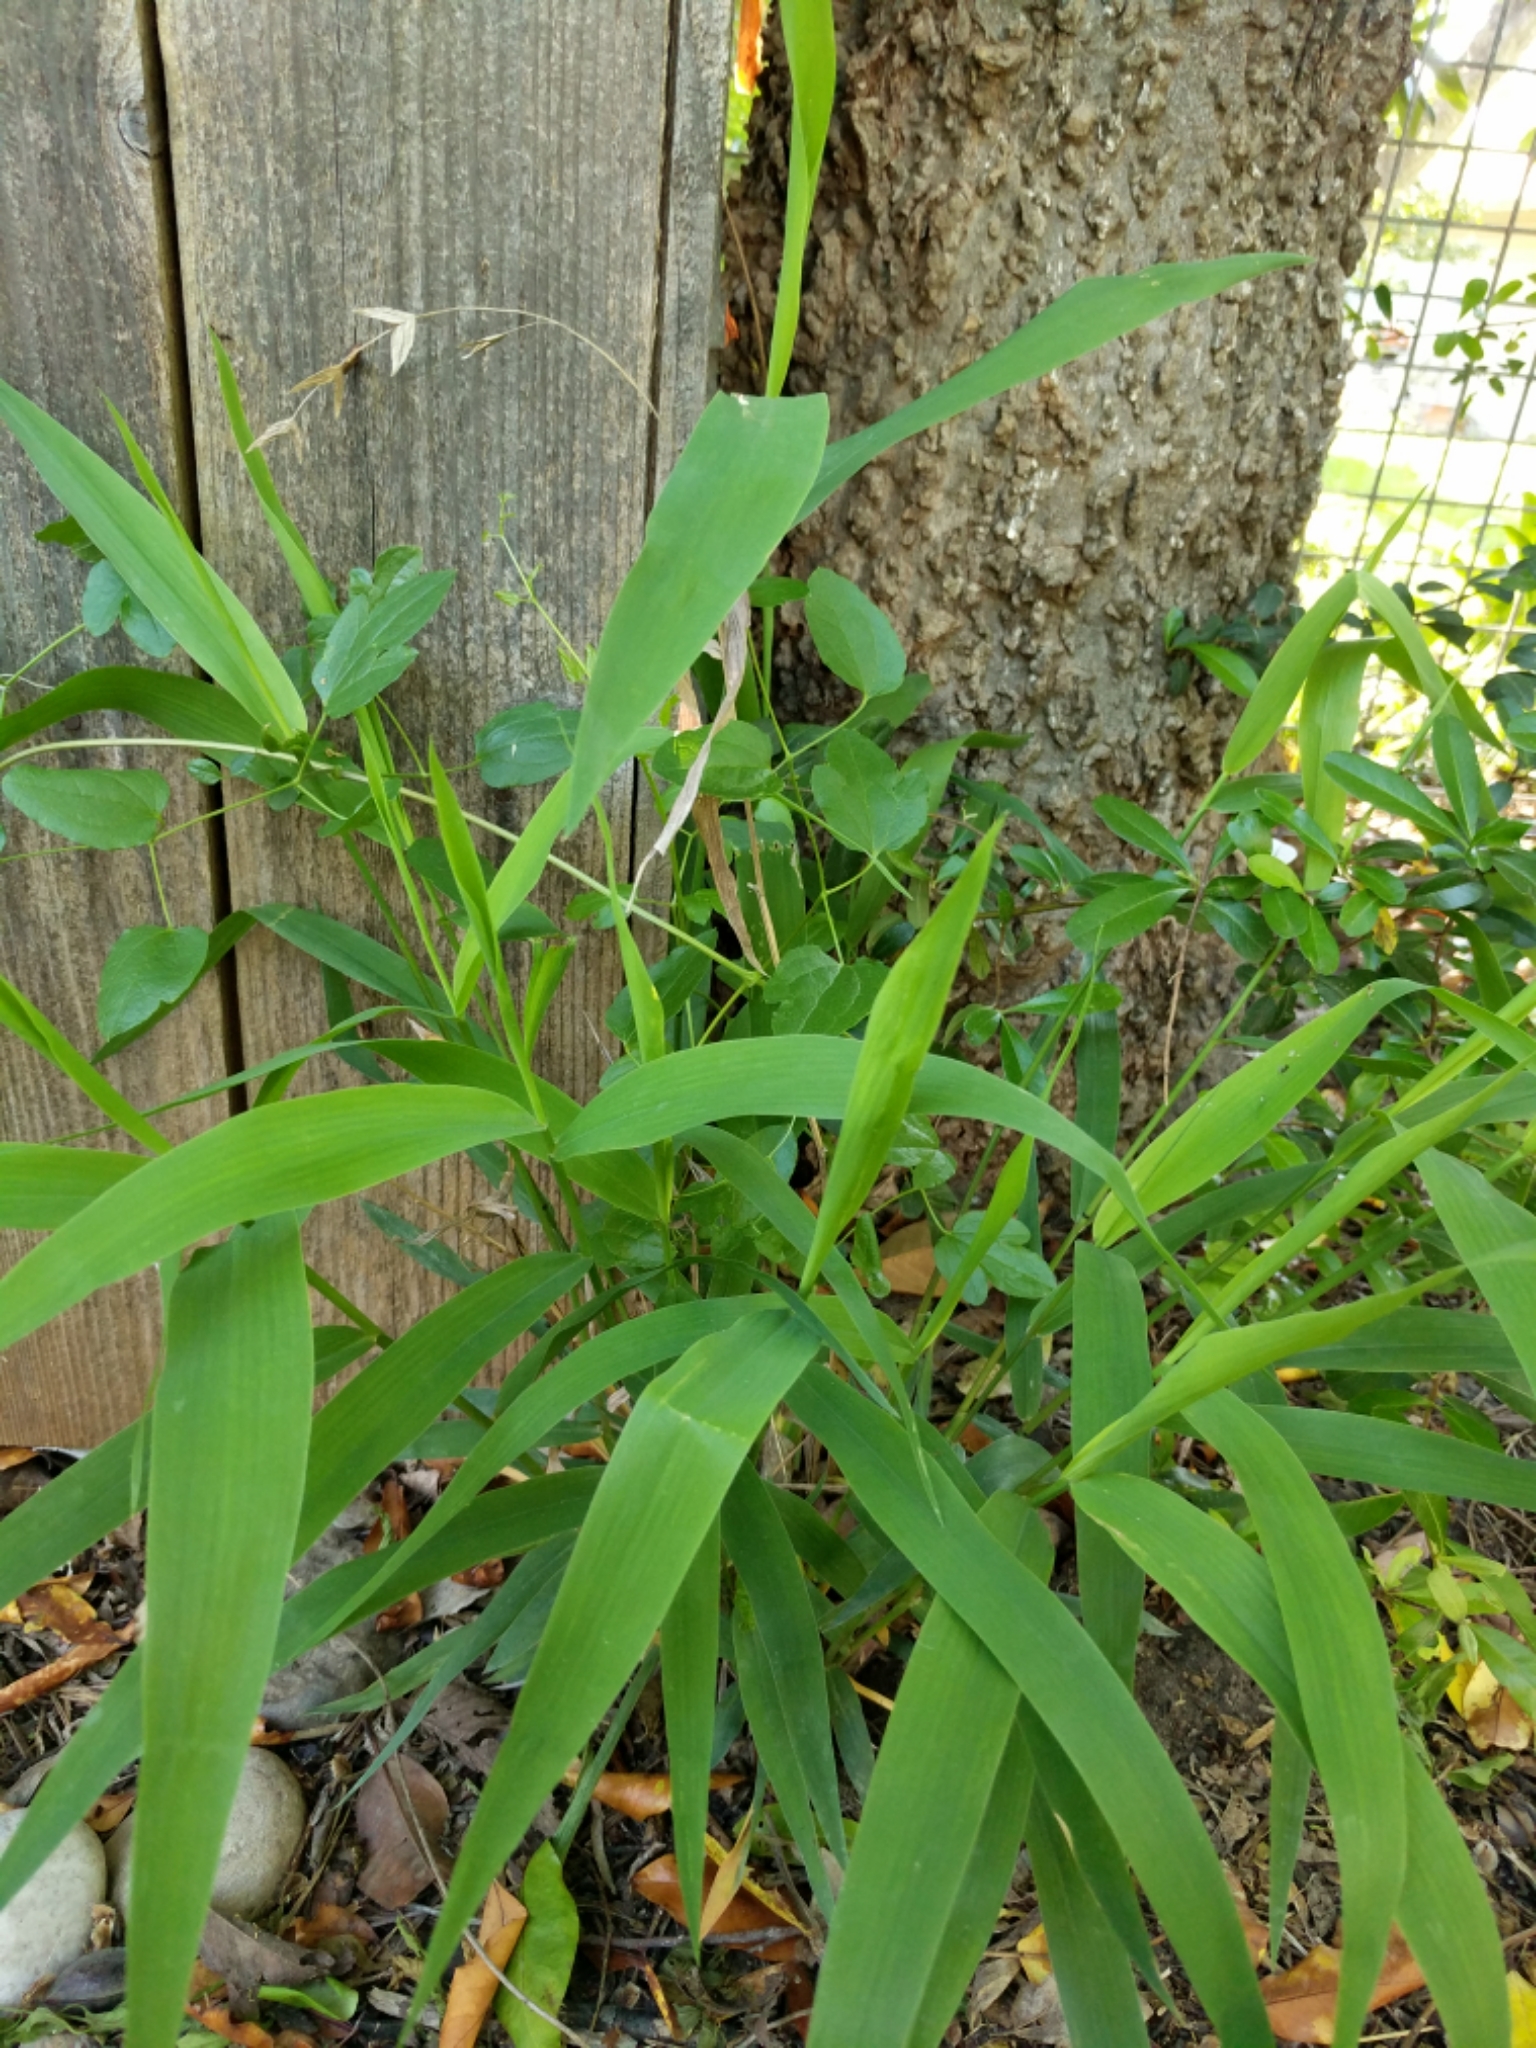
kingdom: Plantae
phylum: Tracheophyta
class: Liliopsida
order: Poales
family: Poaceae
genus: Chasmanthium
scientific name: Chasmanthium latifolium
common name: Broad-leaved chasmanthium
